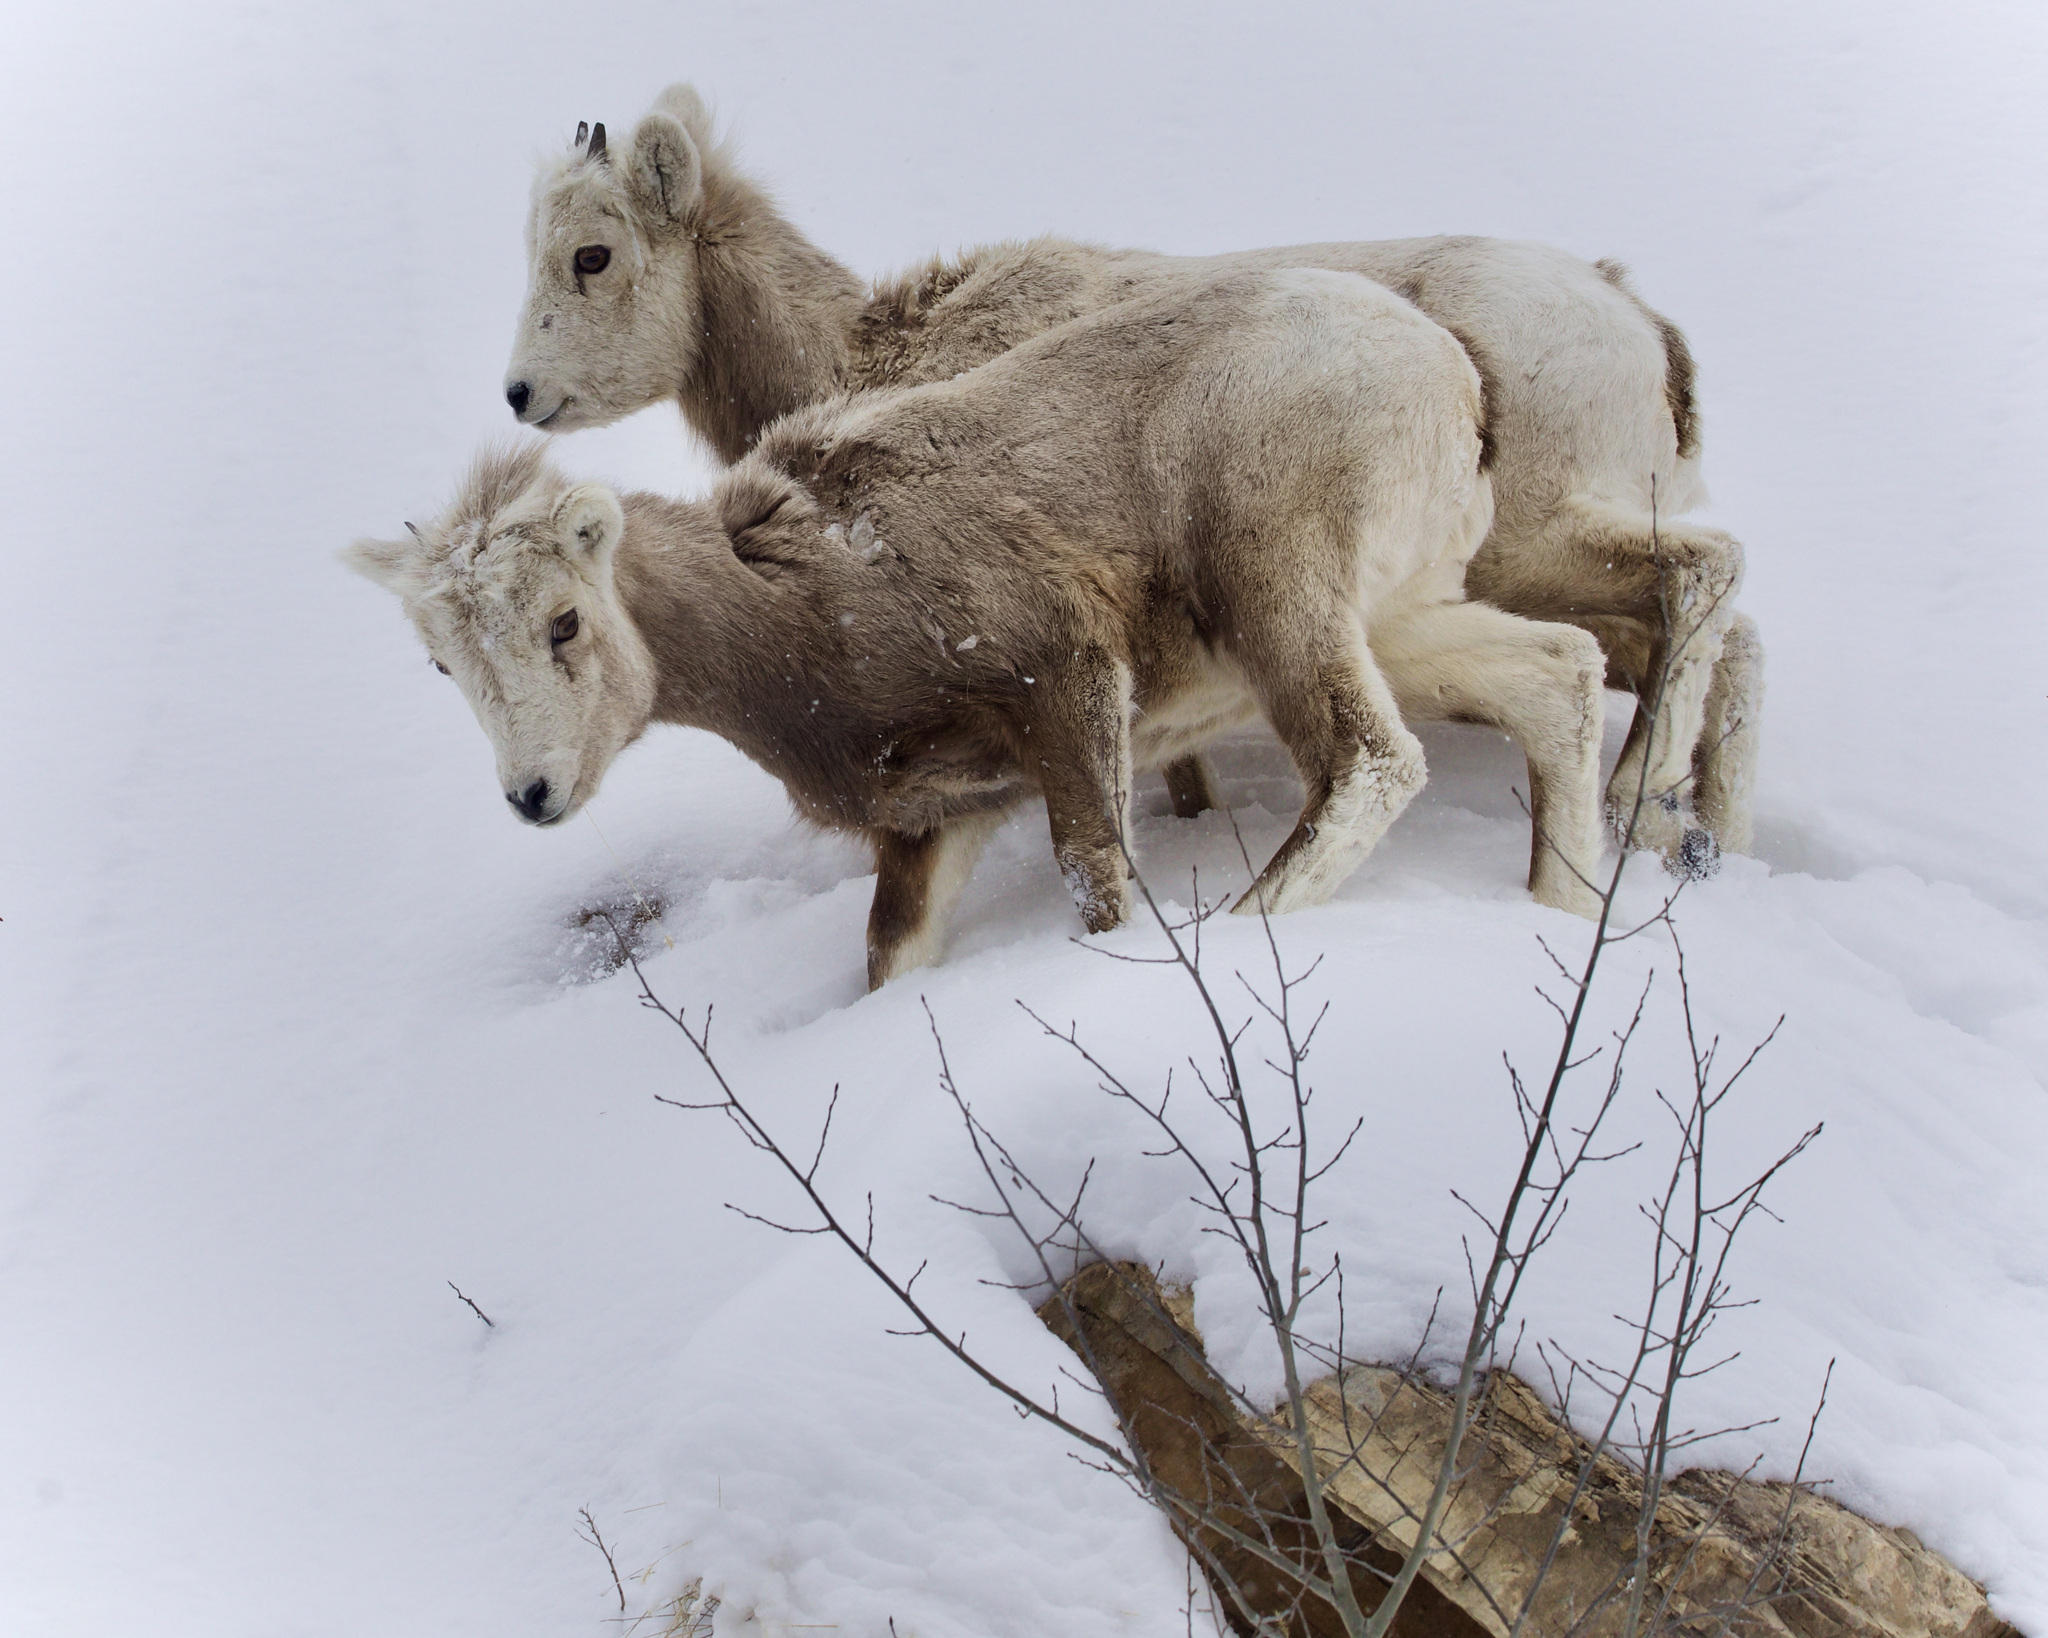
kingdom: Animalia
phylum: Chordata
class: Mammalia
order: Artiodactyla
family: Bovidae
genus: Ovis
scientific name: Ovis canadensis
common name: Bighorn sheep
